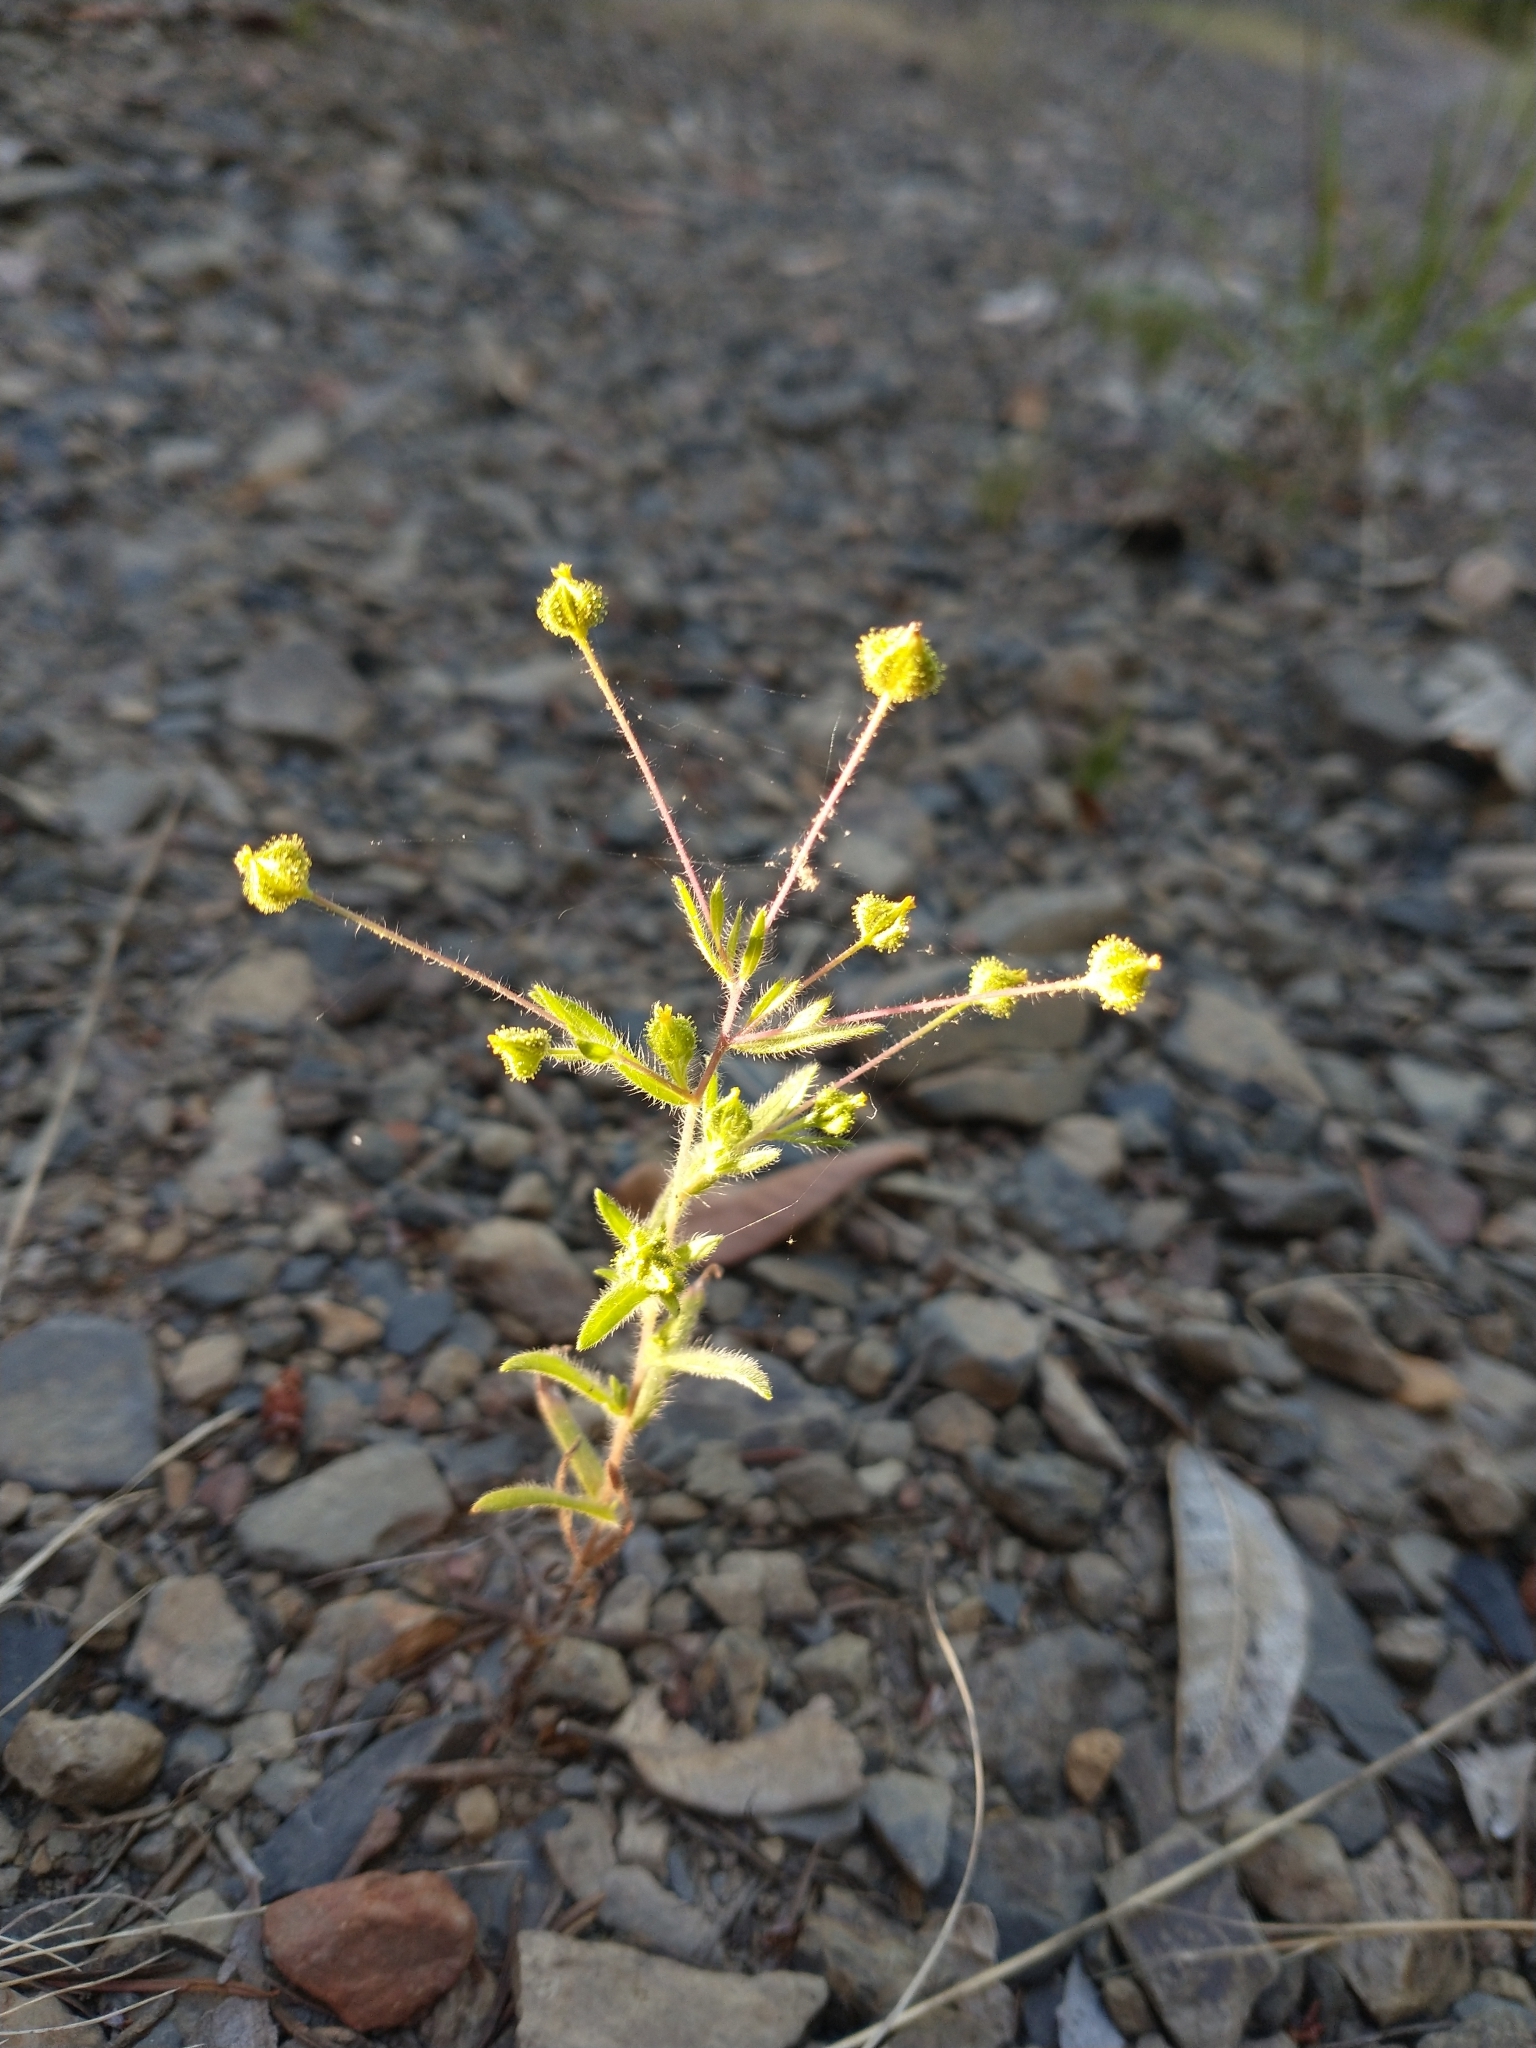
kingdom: Plantae
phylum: Tracheophyta
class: Magnoliopsida
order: Asterales
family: Asteraceae
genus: Madia
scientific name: Madia exigua
